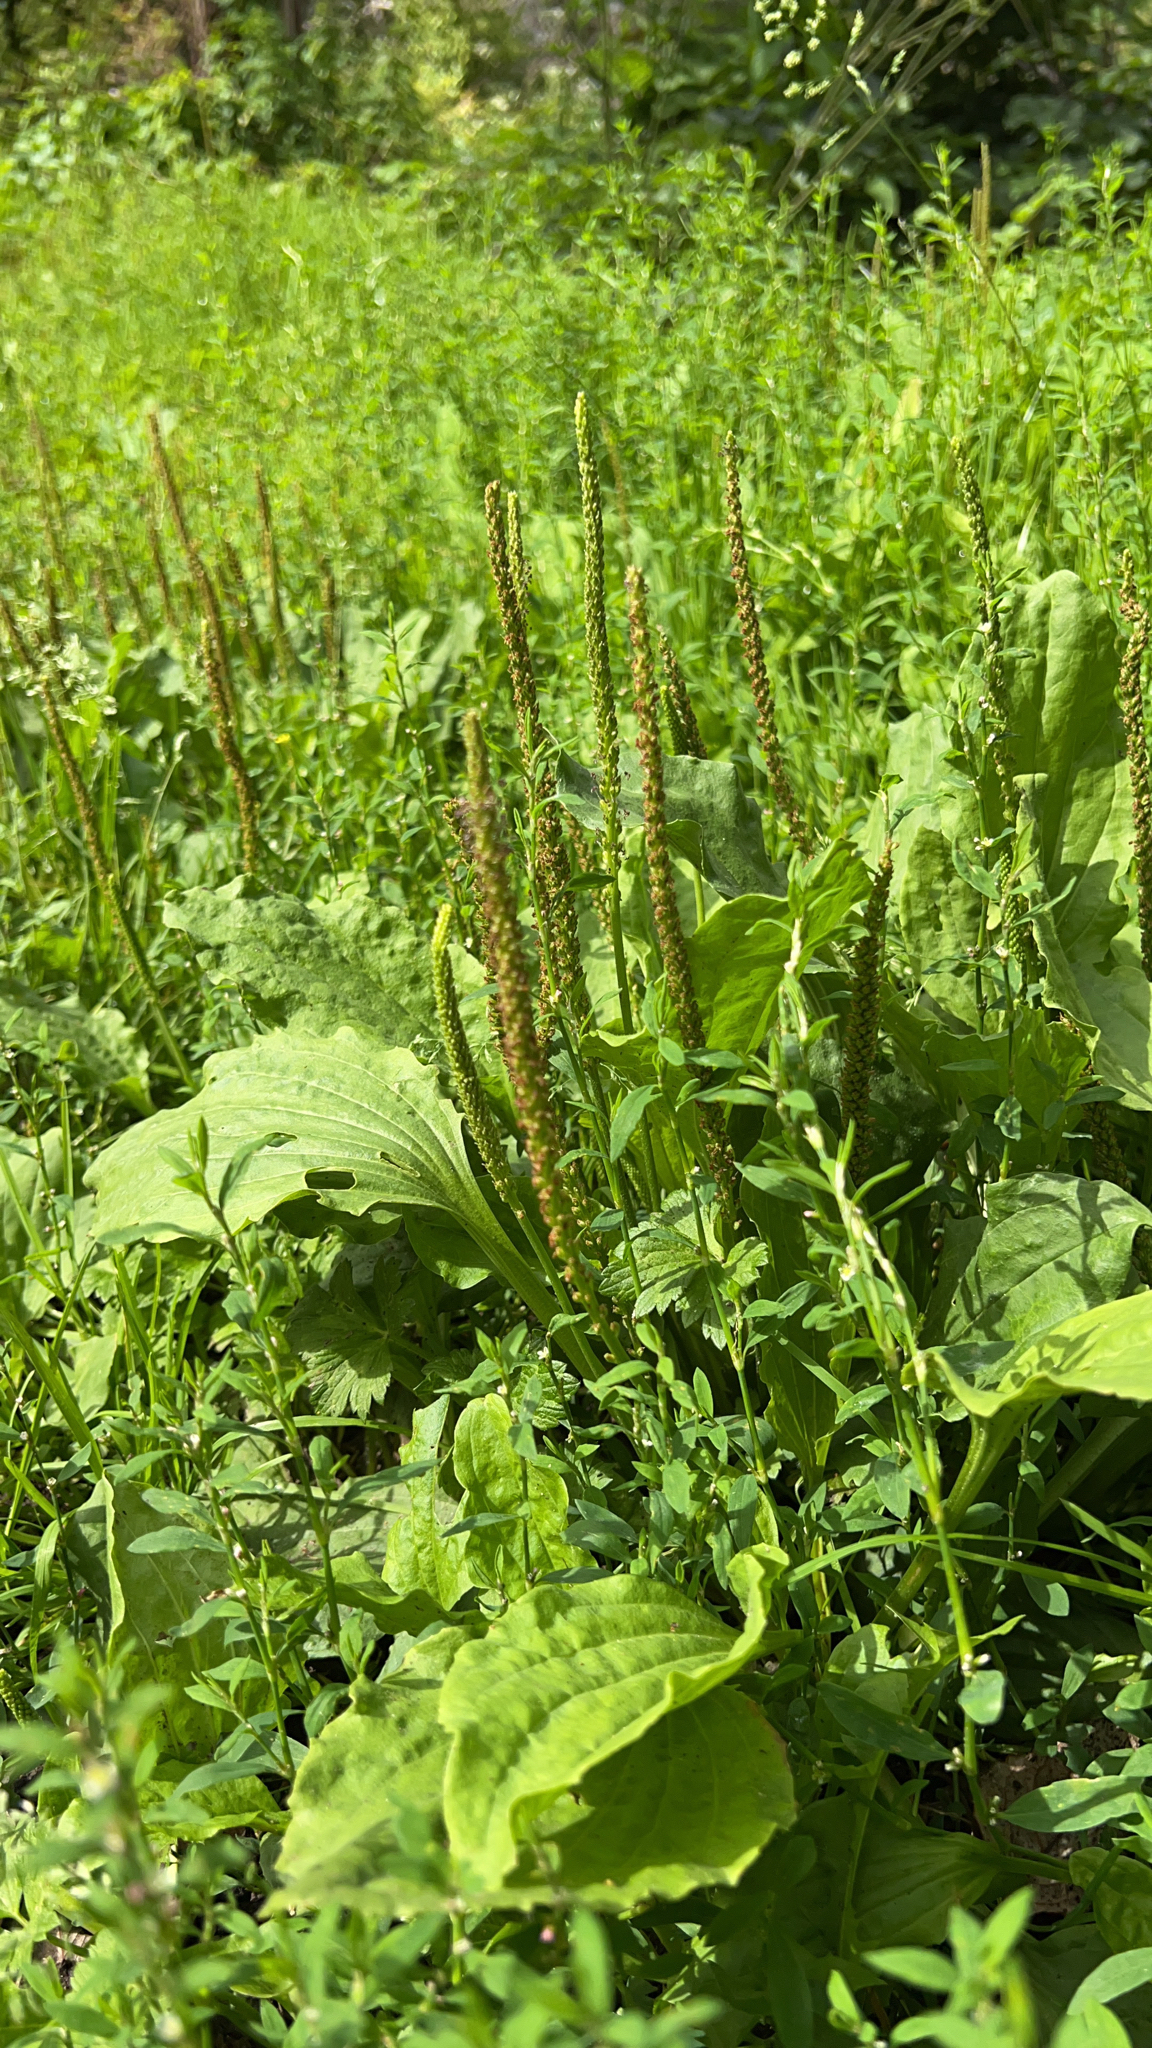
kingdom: Plantae
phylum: Tracheophyta
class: Magnoliopsida
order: Lamiales
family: Plantaginaceae
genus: Plantago
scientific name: Plantago major
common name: Common plantain
